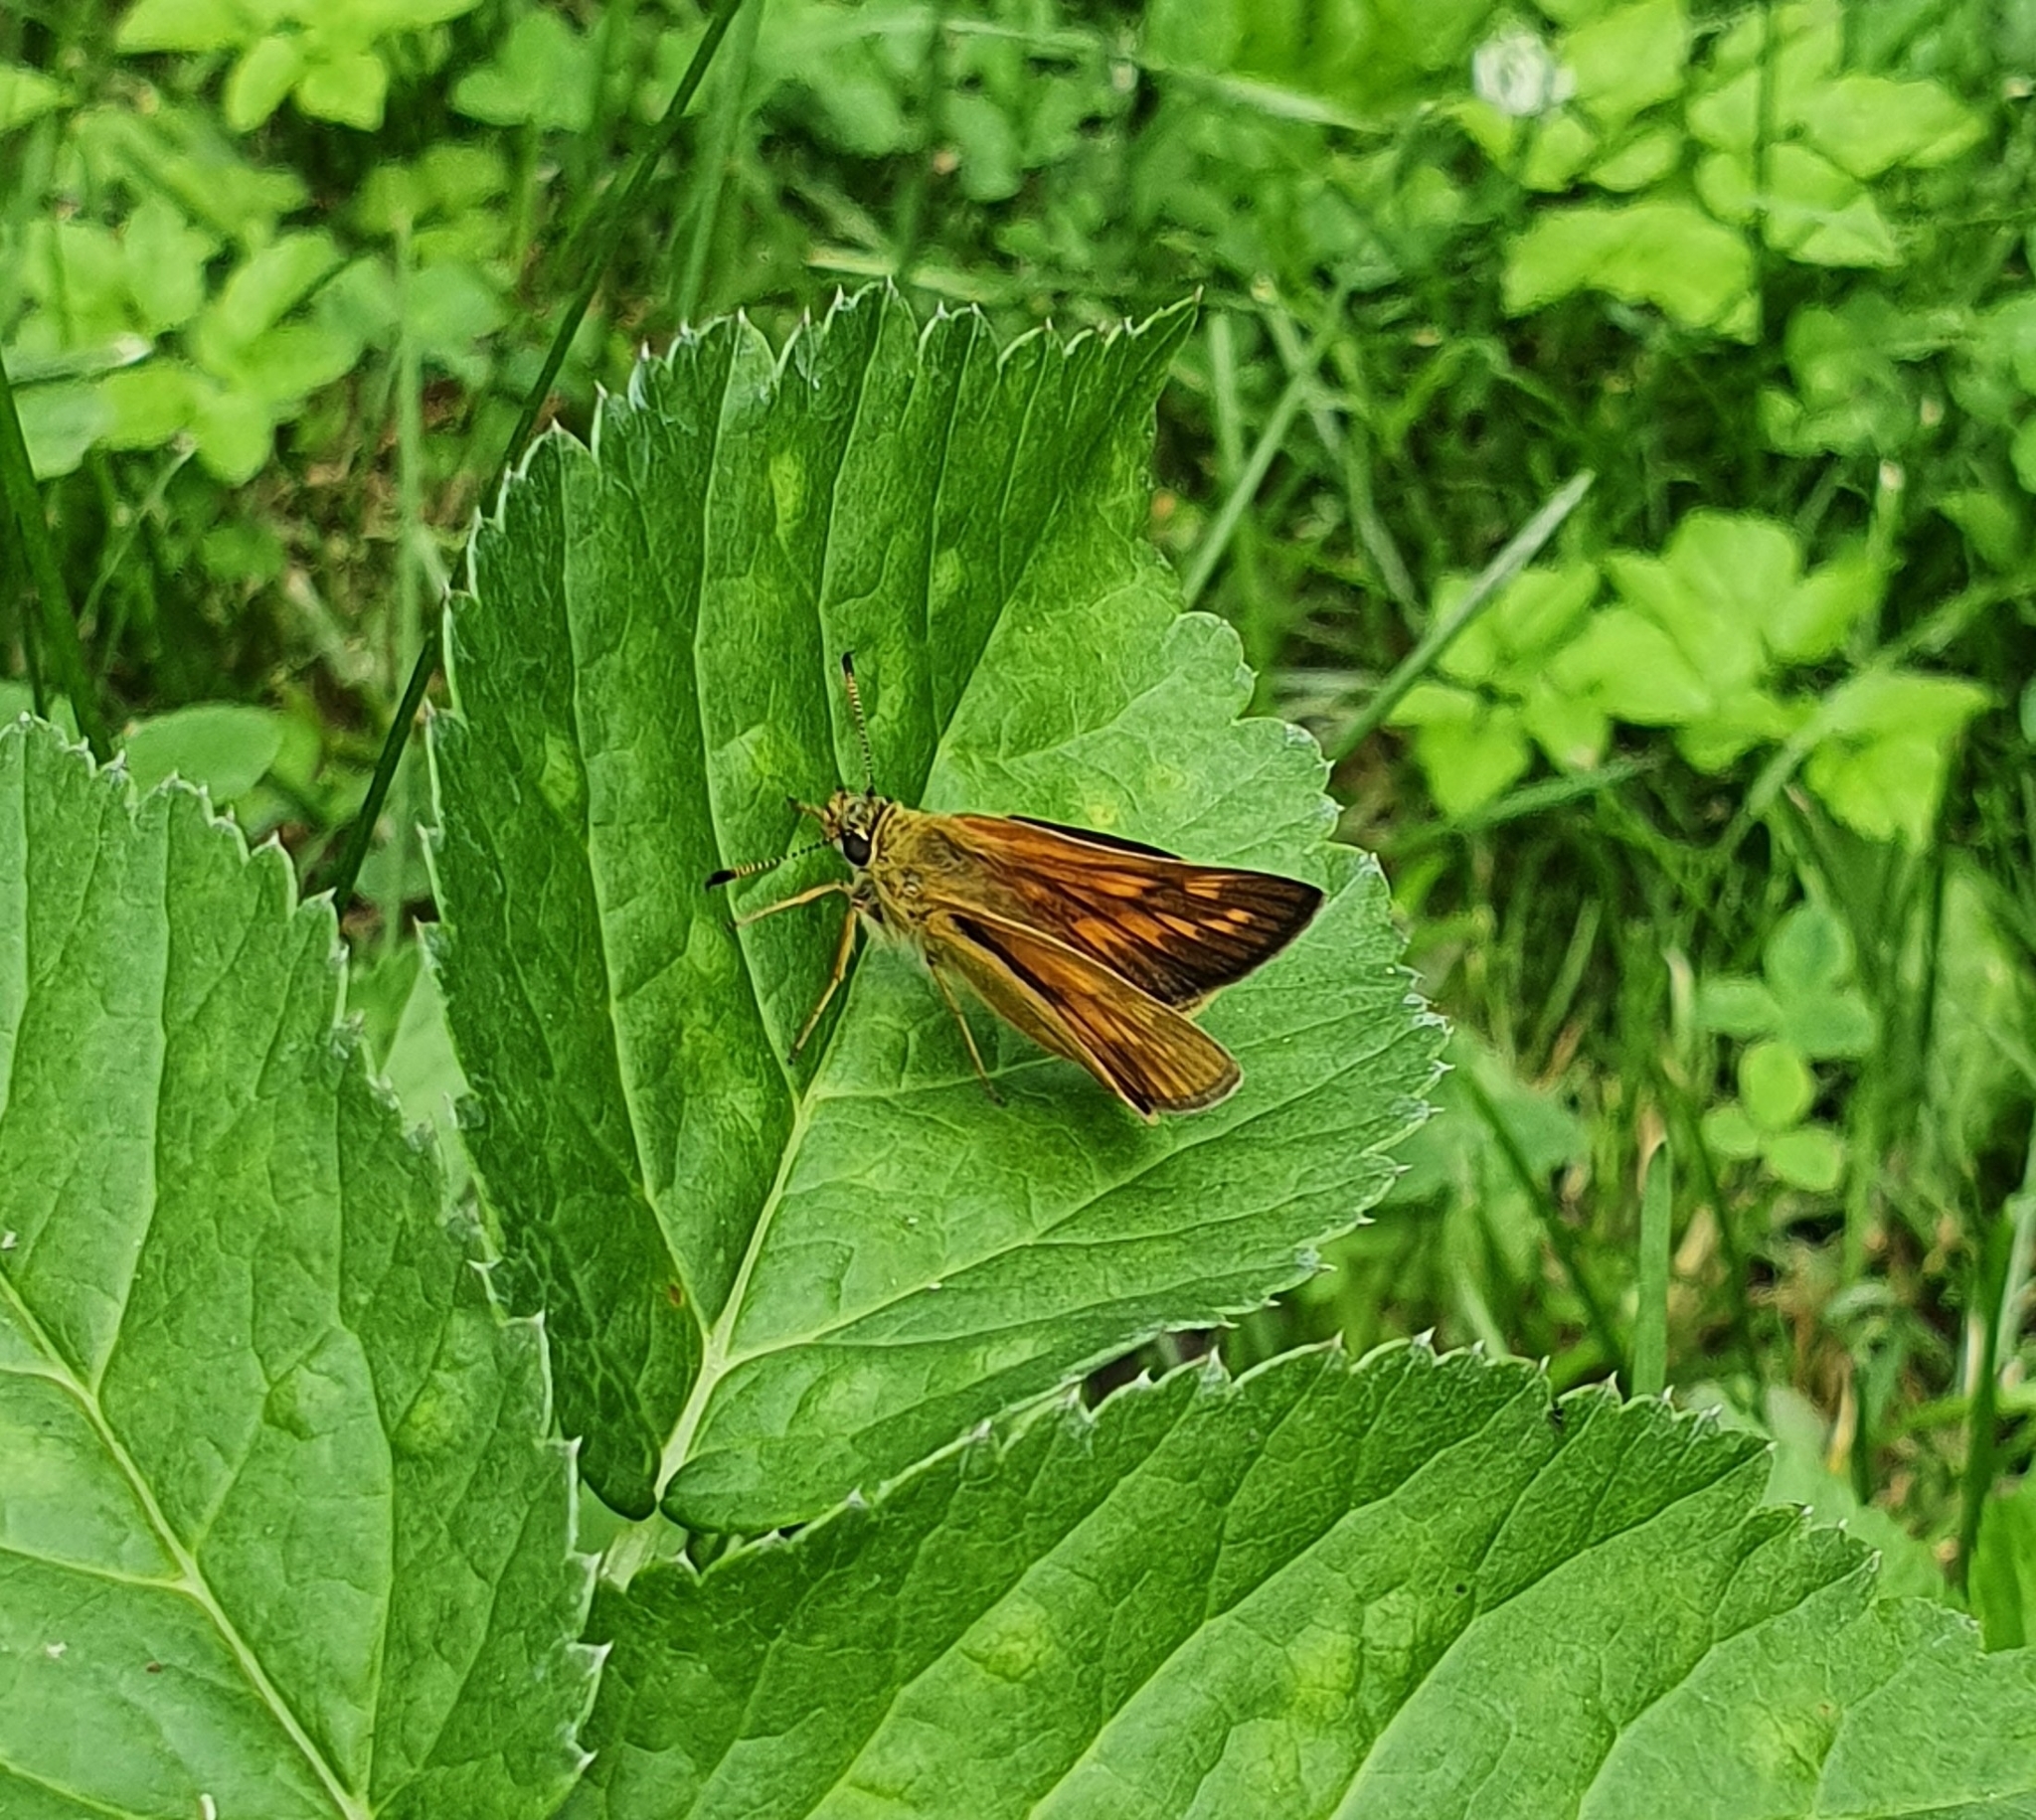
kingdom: Animalia
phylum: Arthropoda
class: Insecta
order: Lepidoptera
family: Hesperiidae
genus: Ochlodes
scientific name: Ochlodes venata
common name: Large skipper
